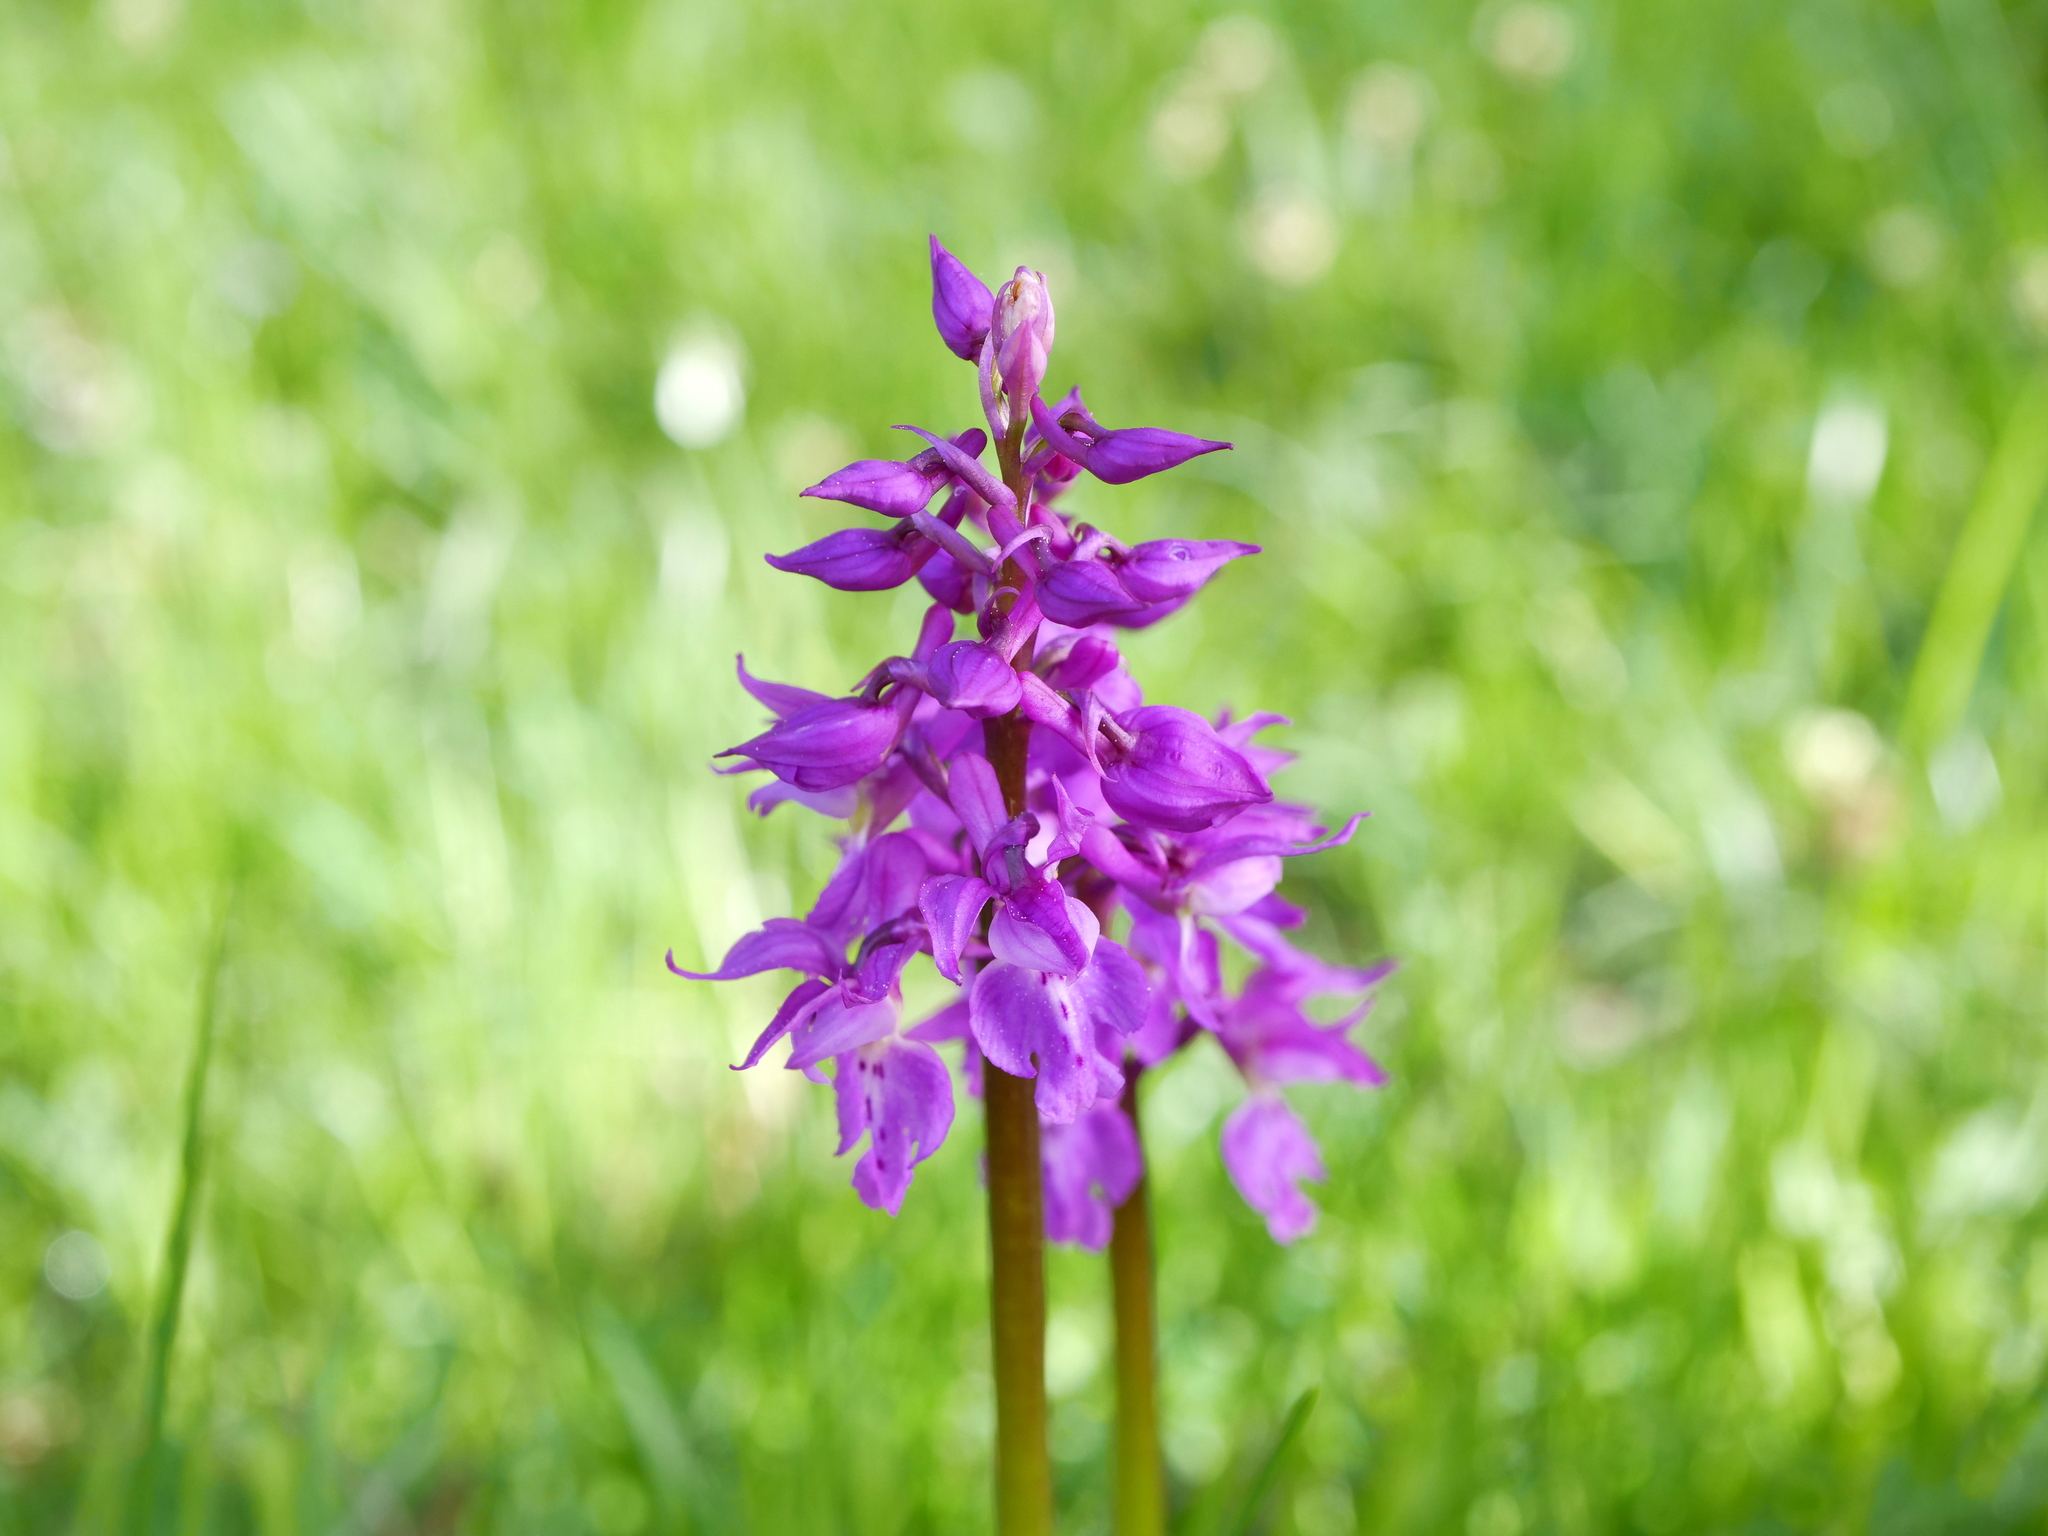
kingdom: Plantae
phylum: Tracheophyta
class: Liliopsida
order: Asparagales
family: Orchidaceae
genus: Orchis
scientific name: Orchis mascula
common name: Early-purple orchid
